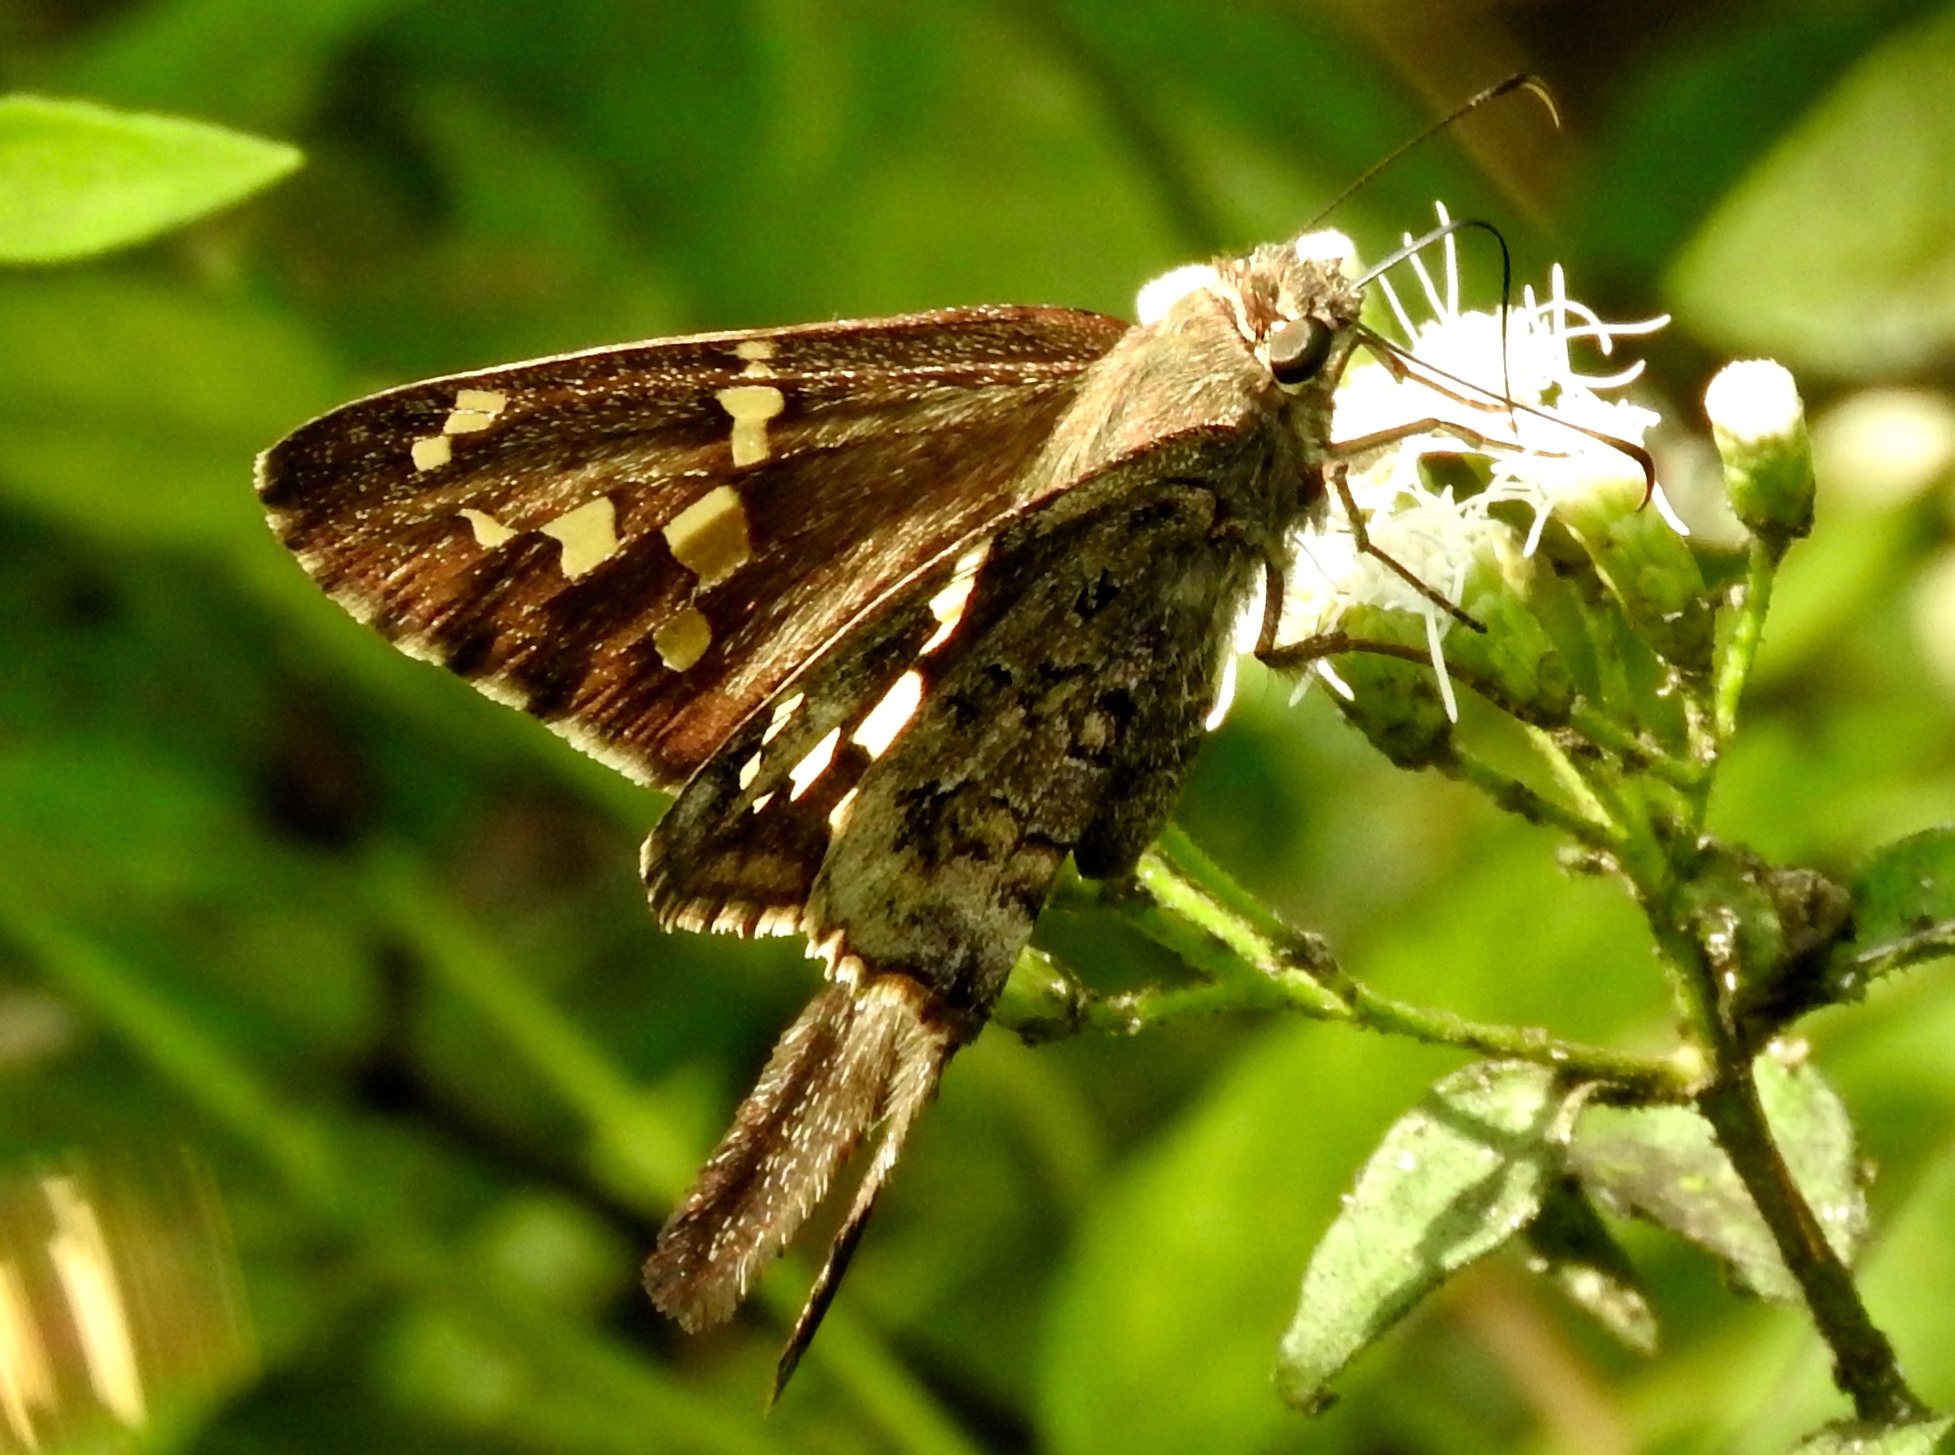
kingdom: Animalia
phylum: Arthropoda
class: Insecta
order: Lepidoptera
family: Hesperiidae
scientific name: Hesperiidae
